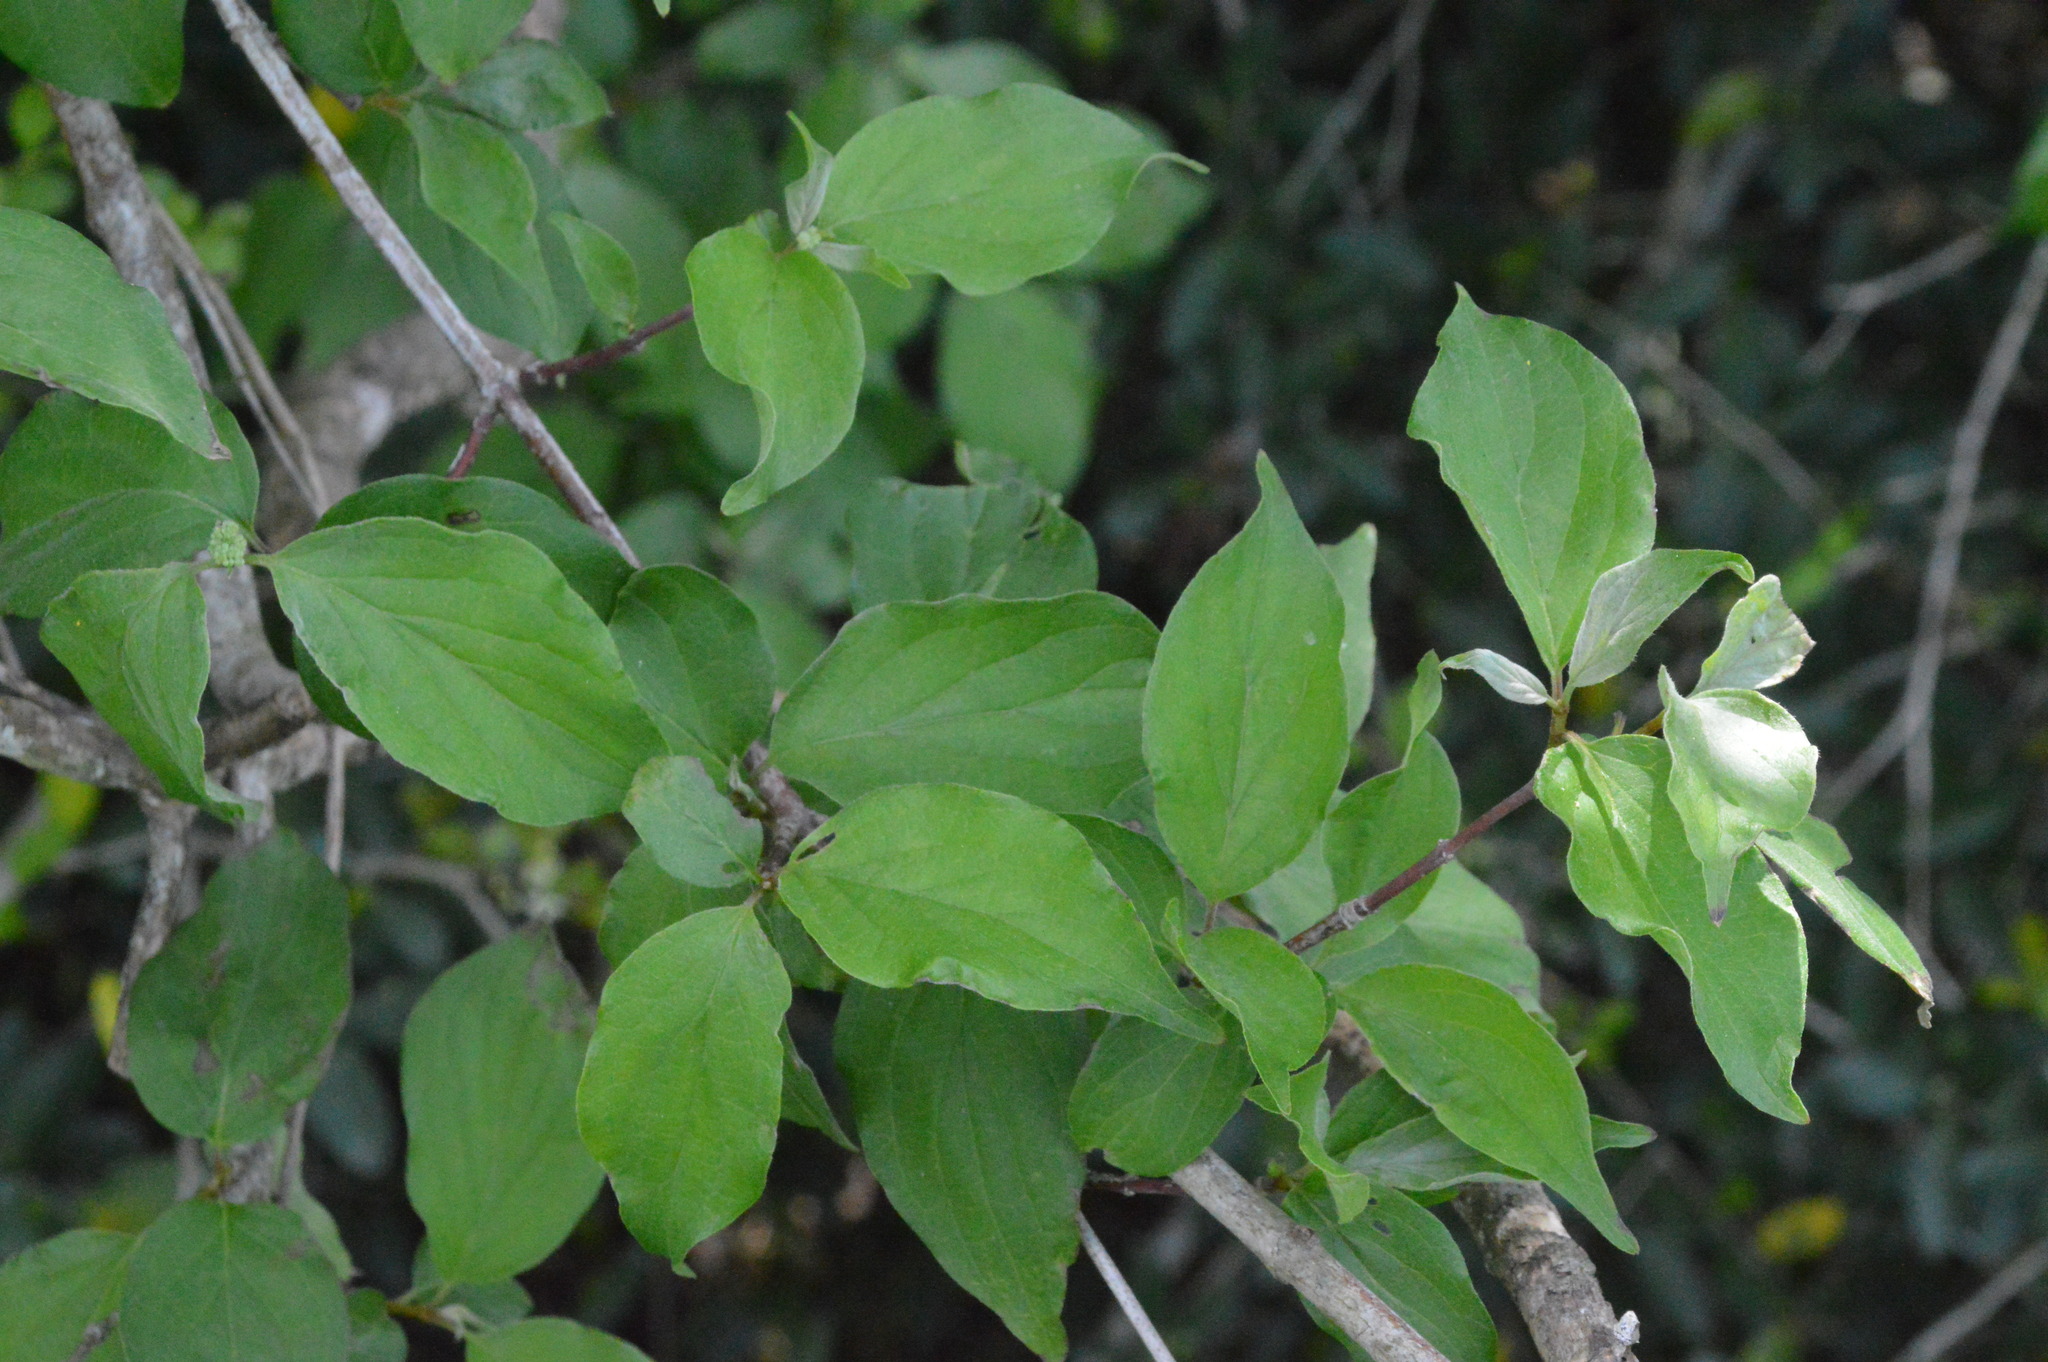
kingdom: Plantae
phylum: Tracheophyta
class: Magnoliopsida
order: Cornales
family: Cornaceae
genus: Cornus
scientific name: Cornus drummondii
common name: Rough-leaf dogwood
